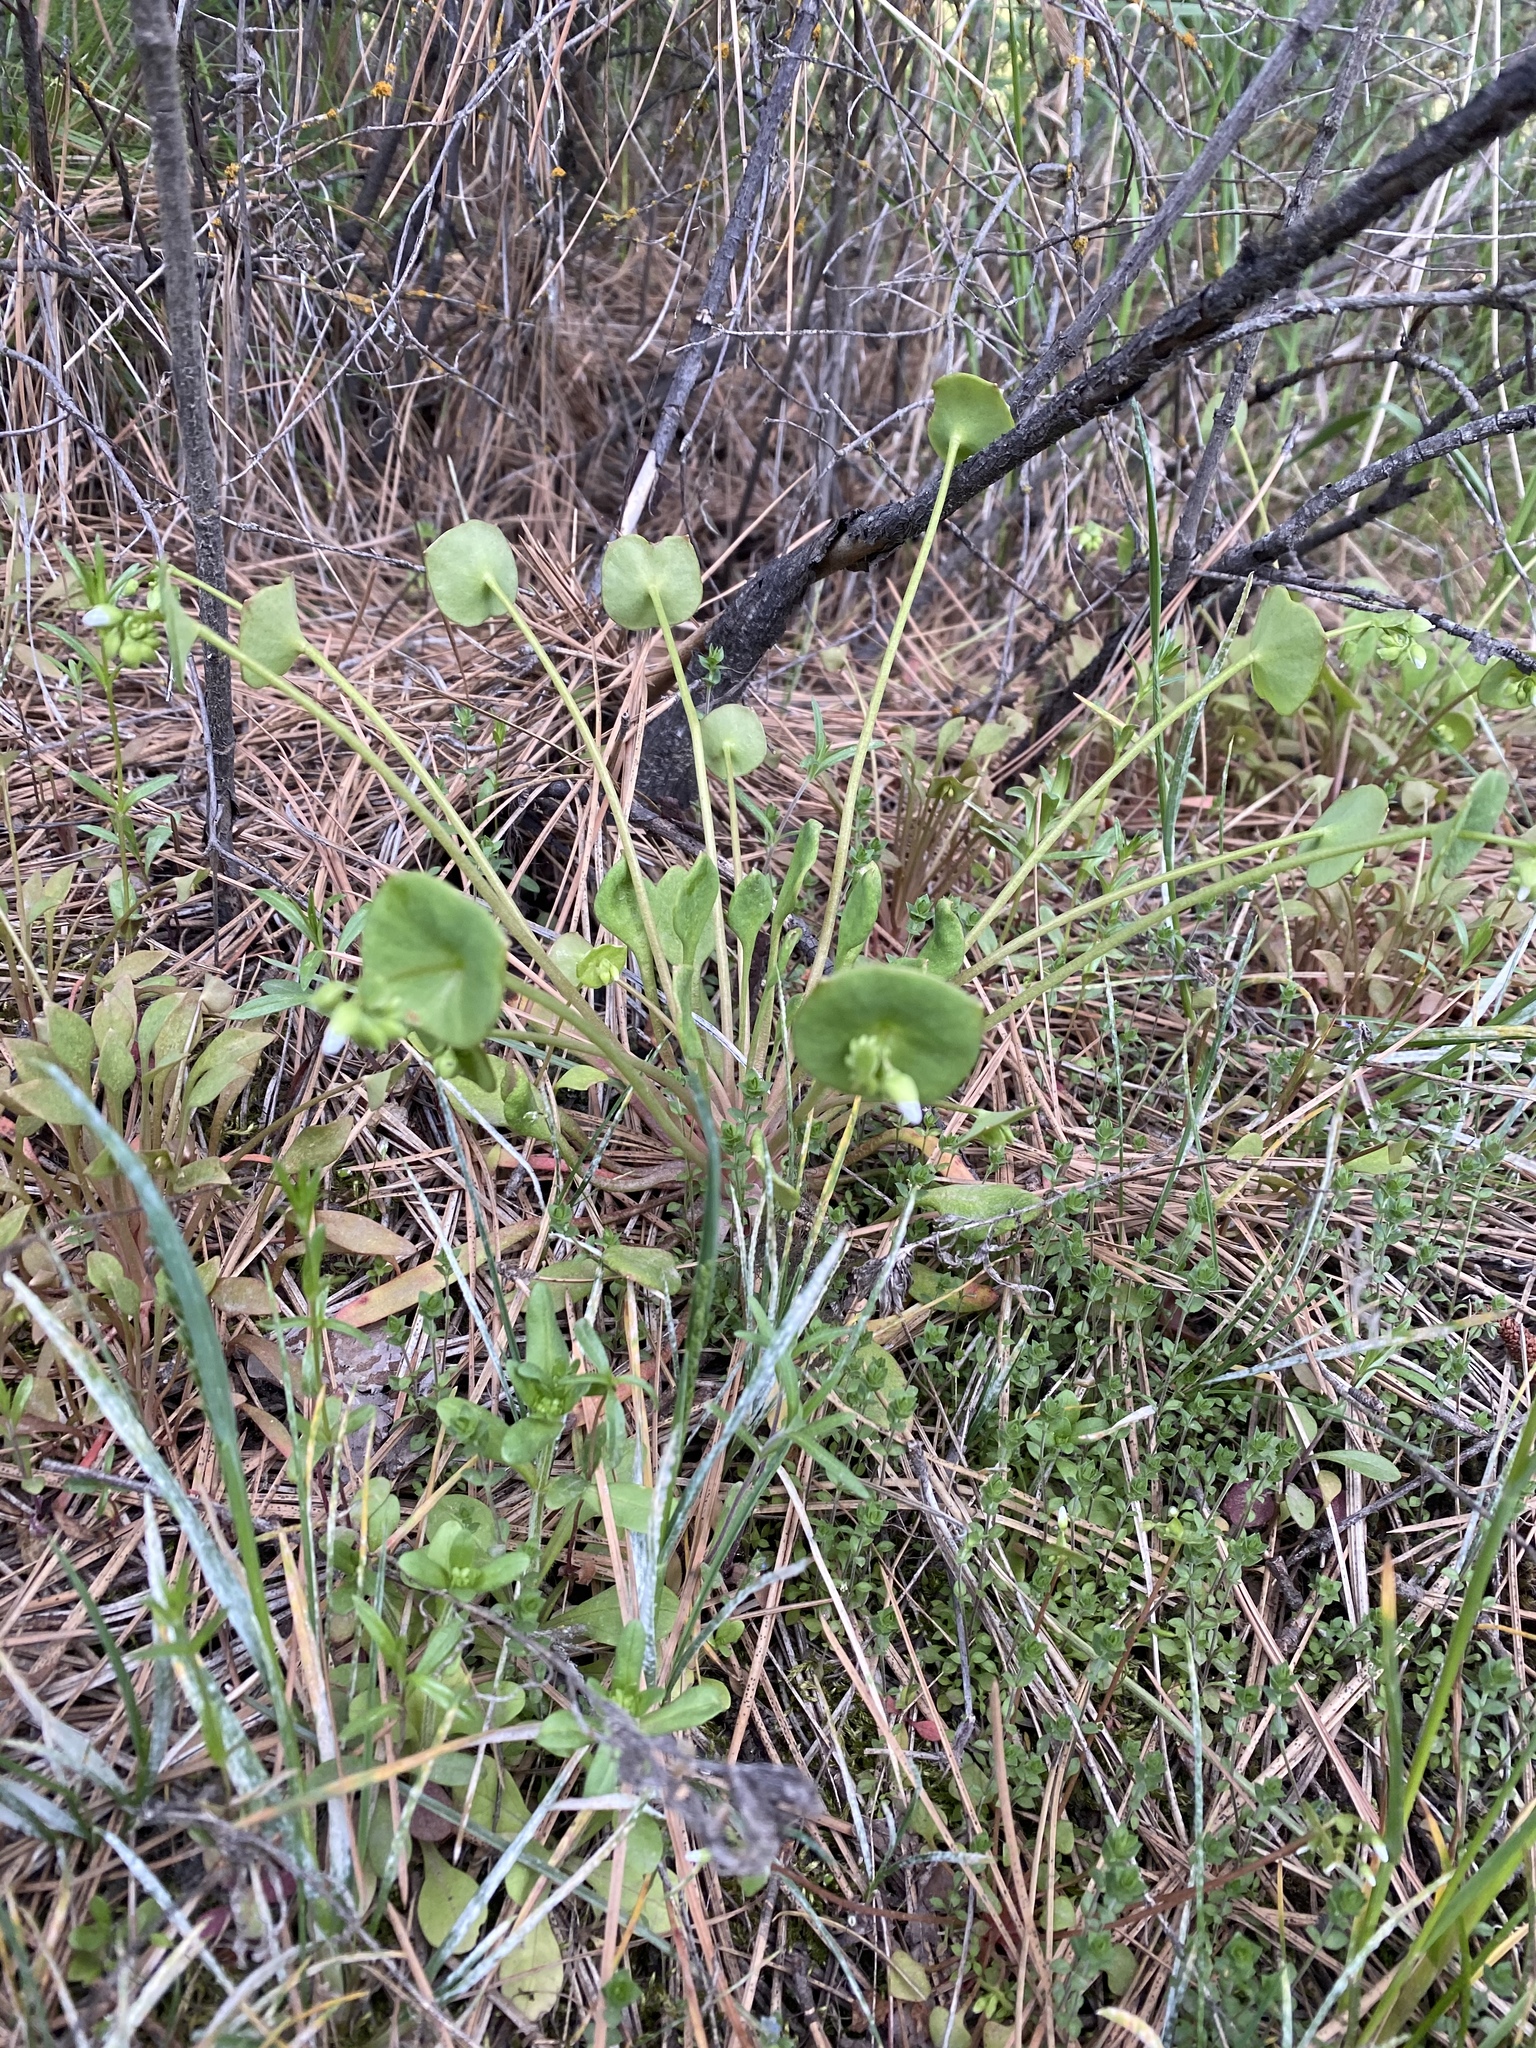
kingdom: Plantae
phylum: Tracheophyta
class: Magnoliopsida
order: Caryophyllales
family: Montiaceae
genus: Claytonia
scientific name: Claytonia perfoliata
